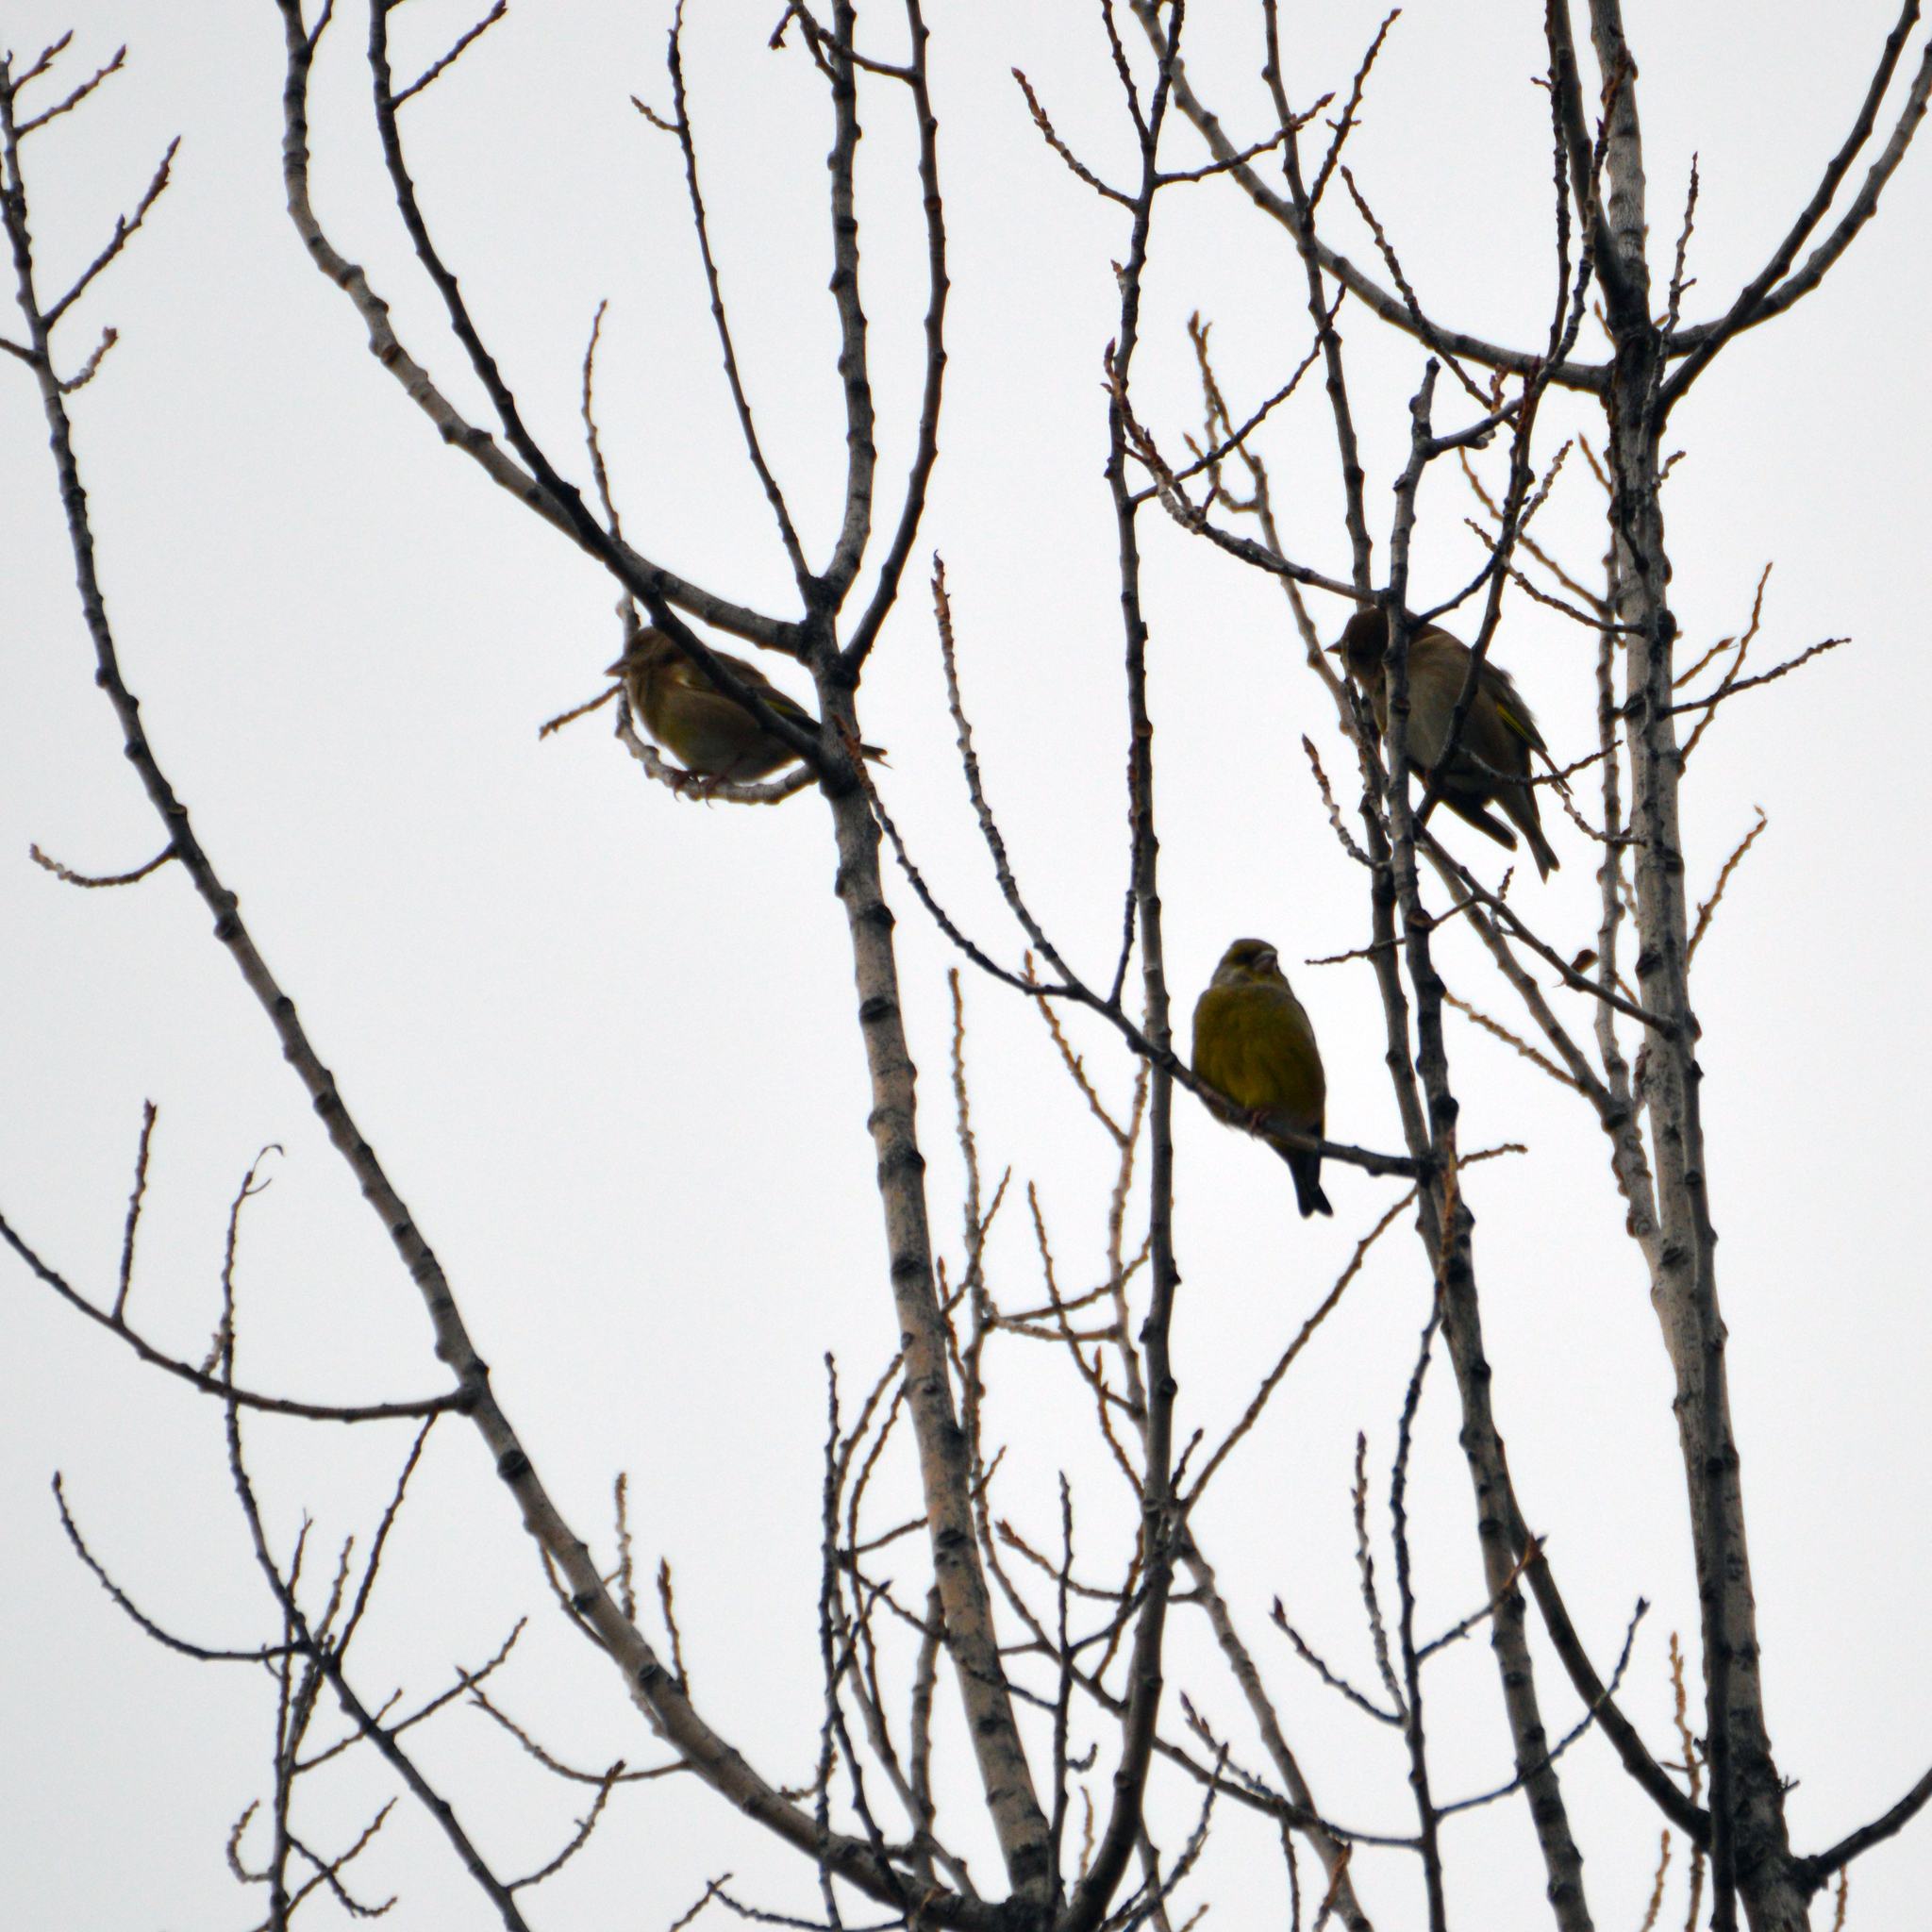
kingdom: Plantae
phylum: Tracheophyta
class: Liliopsida
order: Poales
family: Poaceae
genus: Chloris
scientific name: Chloris chloris
